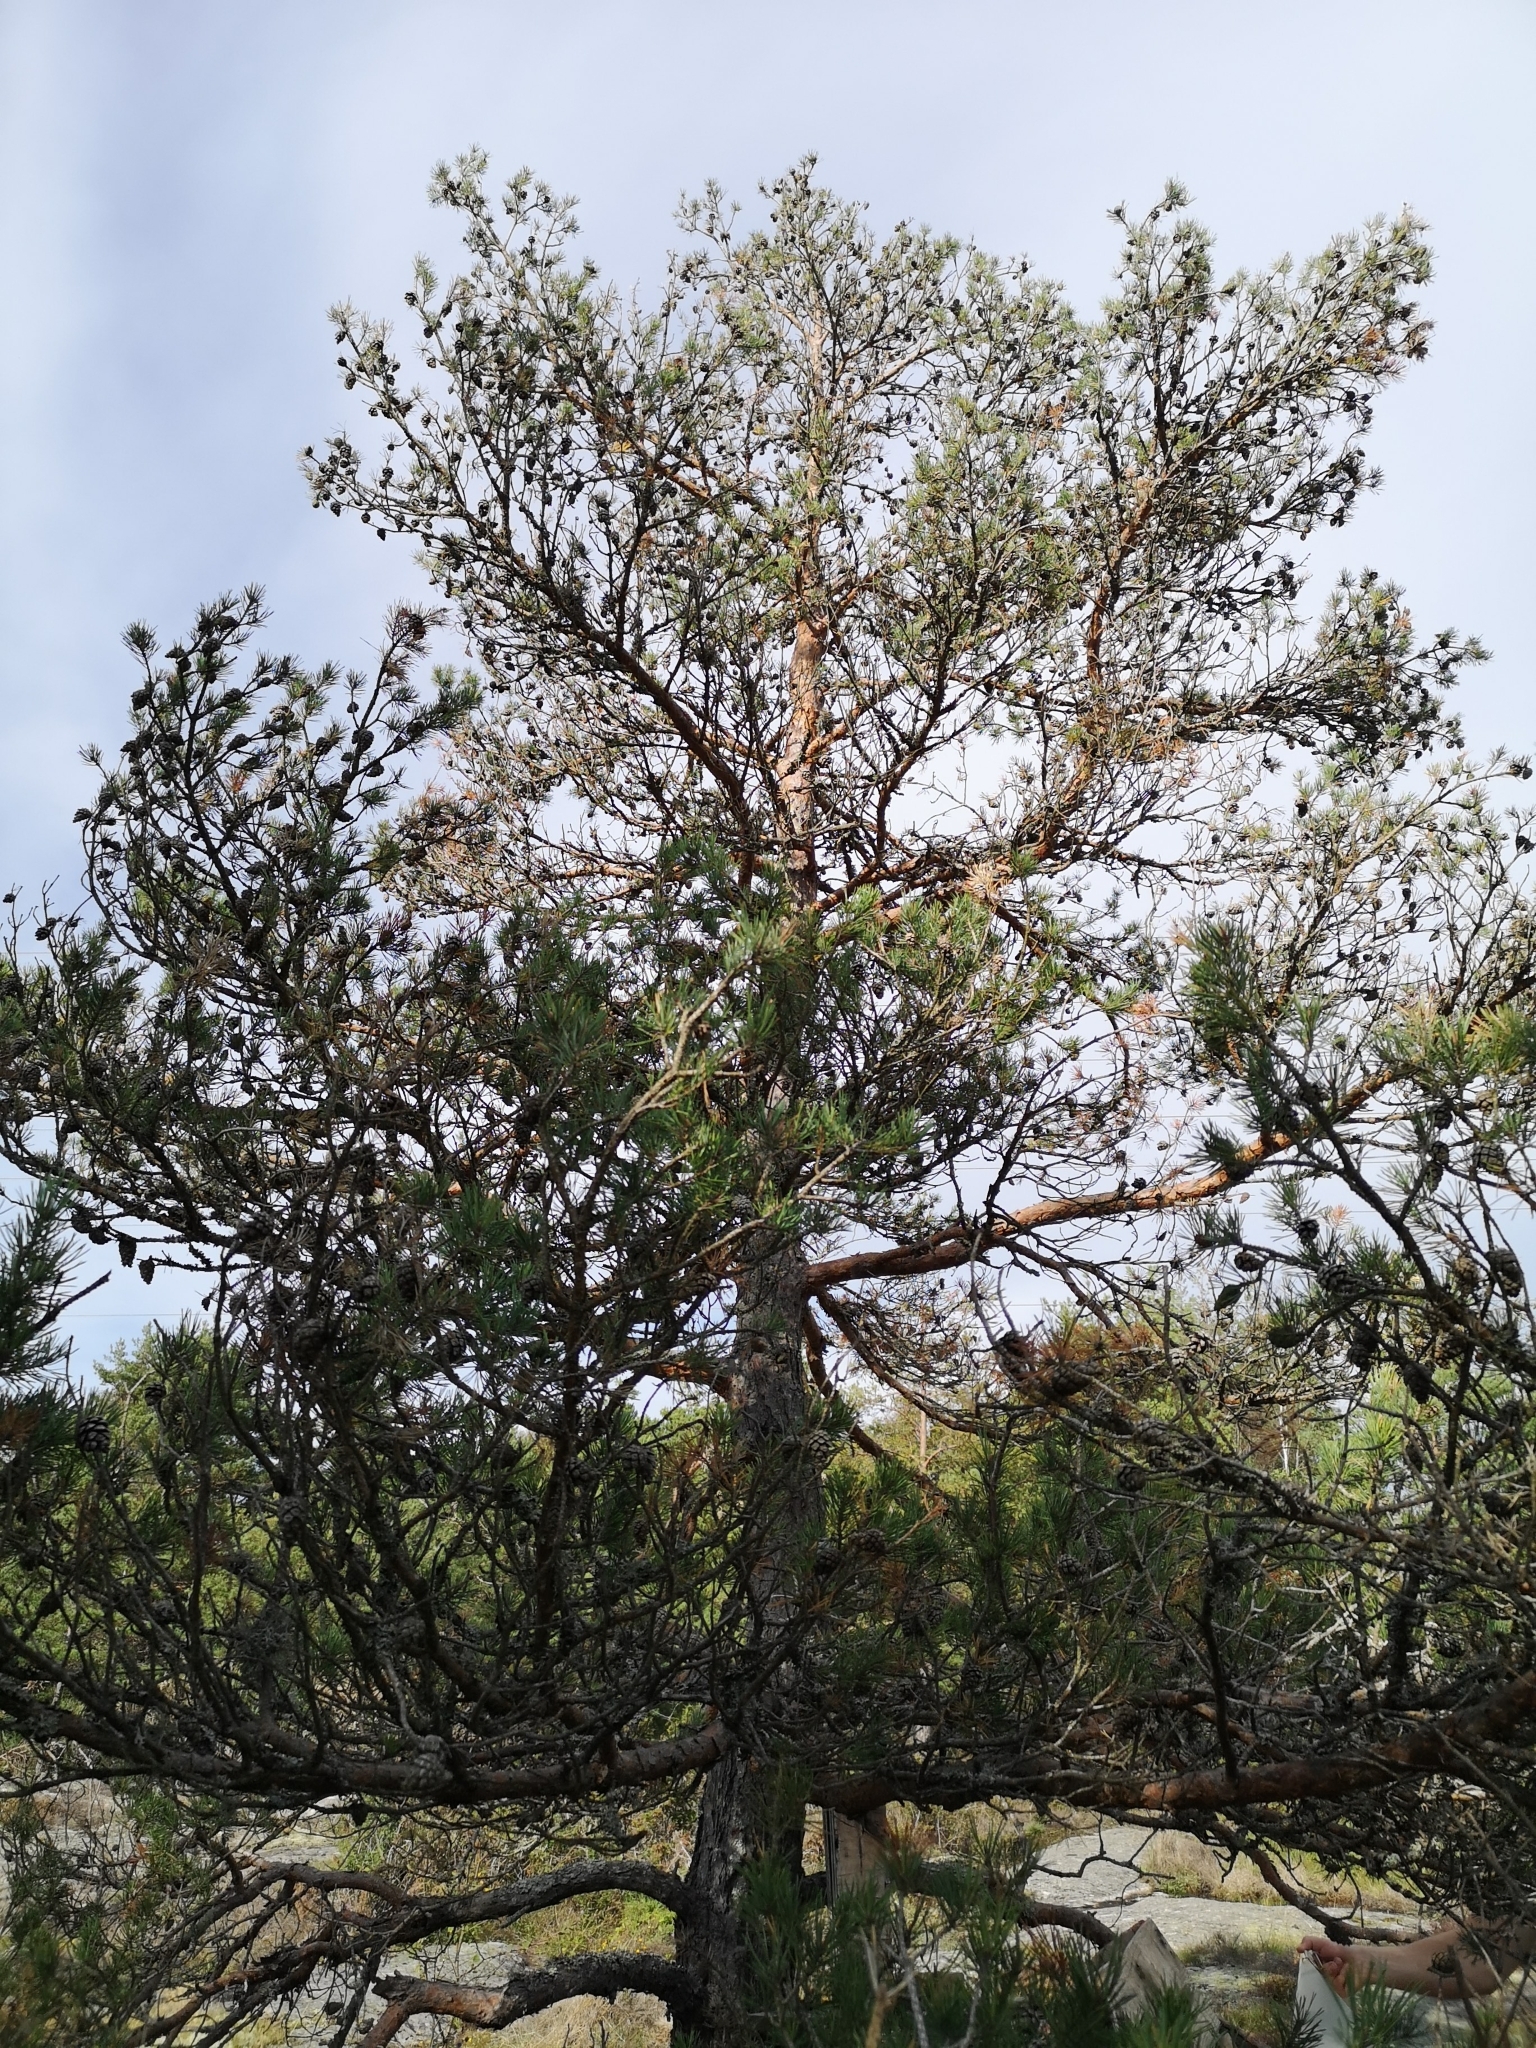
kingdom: Plantae
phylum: Tracheophyta
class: Pinopsida
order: Pinales
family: Pinaceae
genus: Pinus
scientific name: Pinus sylvestris
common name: Scots pine
